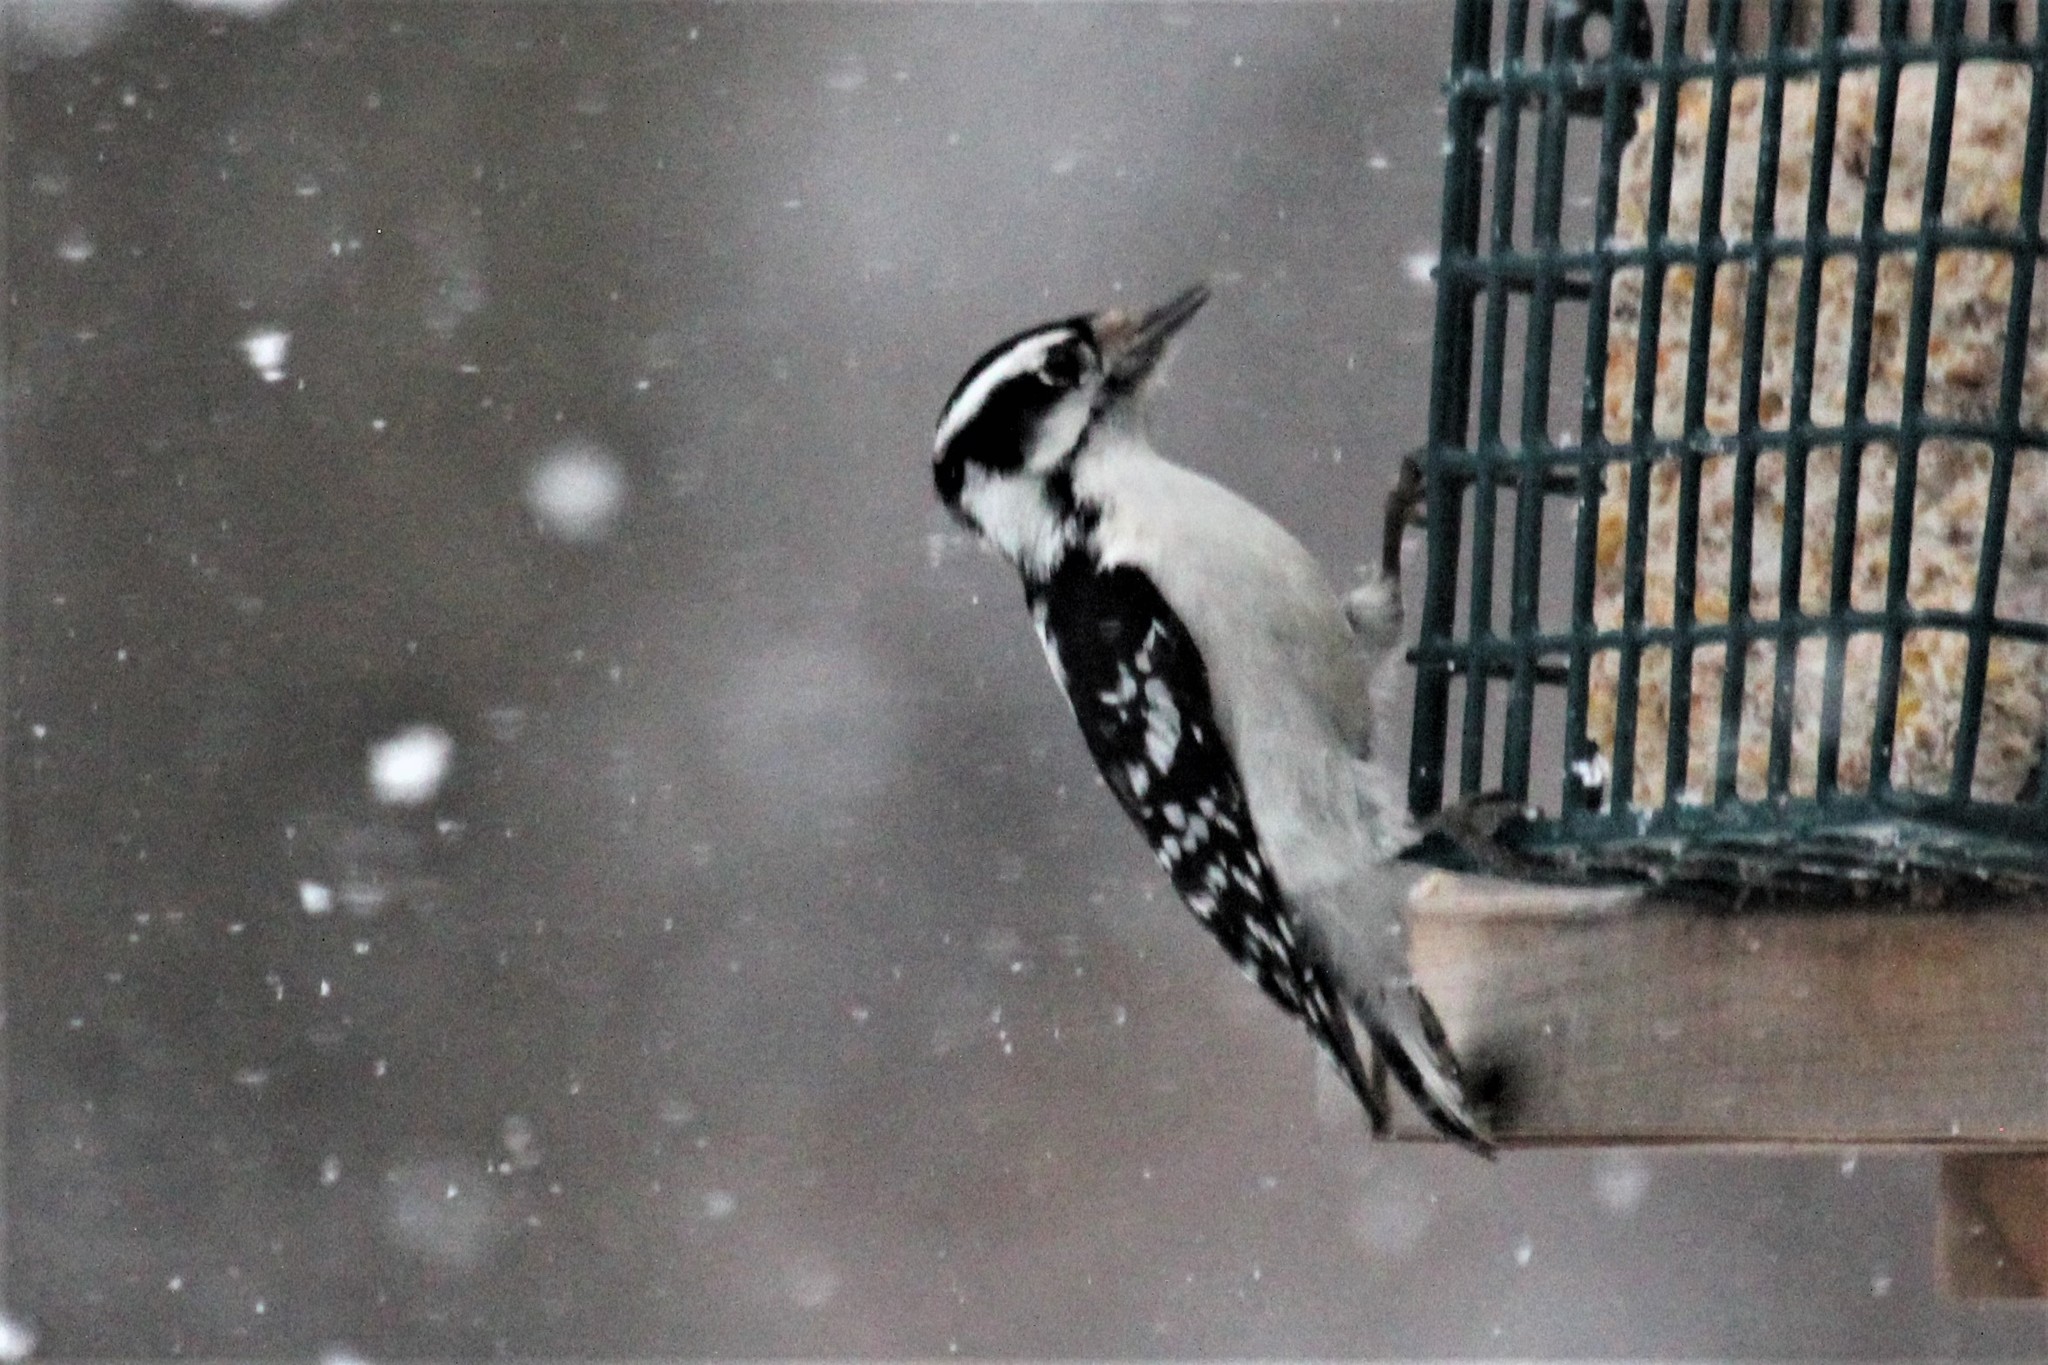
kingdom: Animalia
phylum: Chordata
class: Aves
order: Piciformes
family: Picidae
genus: Dryobates
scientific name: Dryobates pubescens
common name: Downy woodpecker
